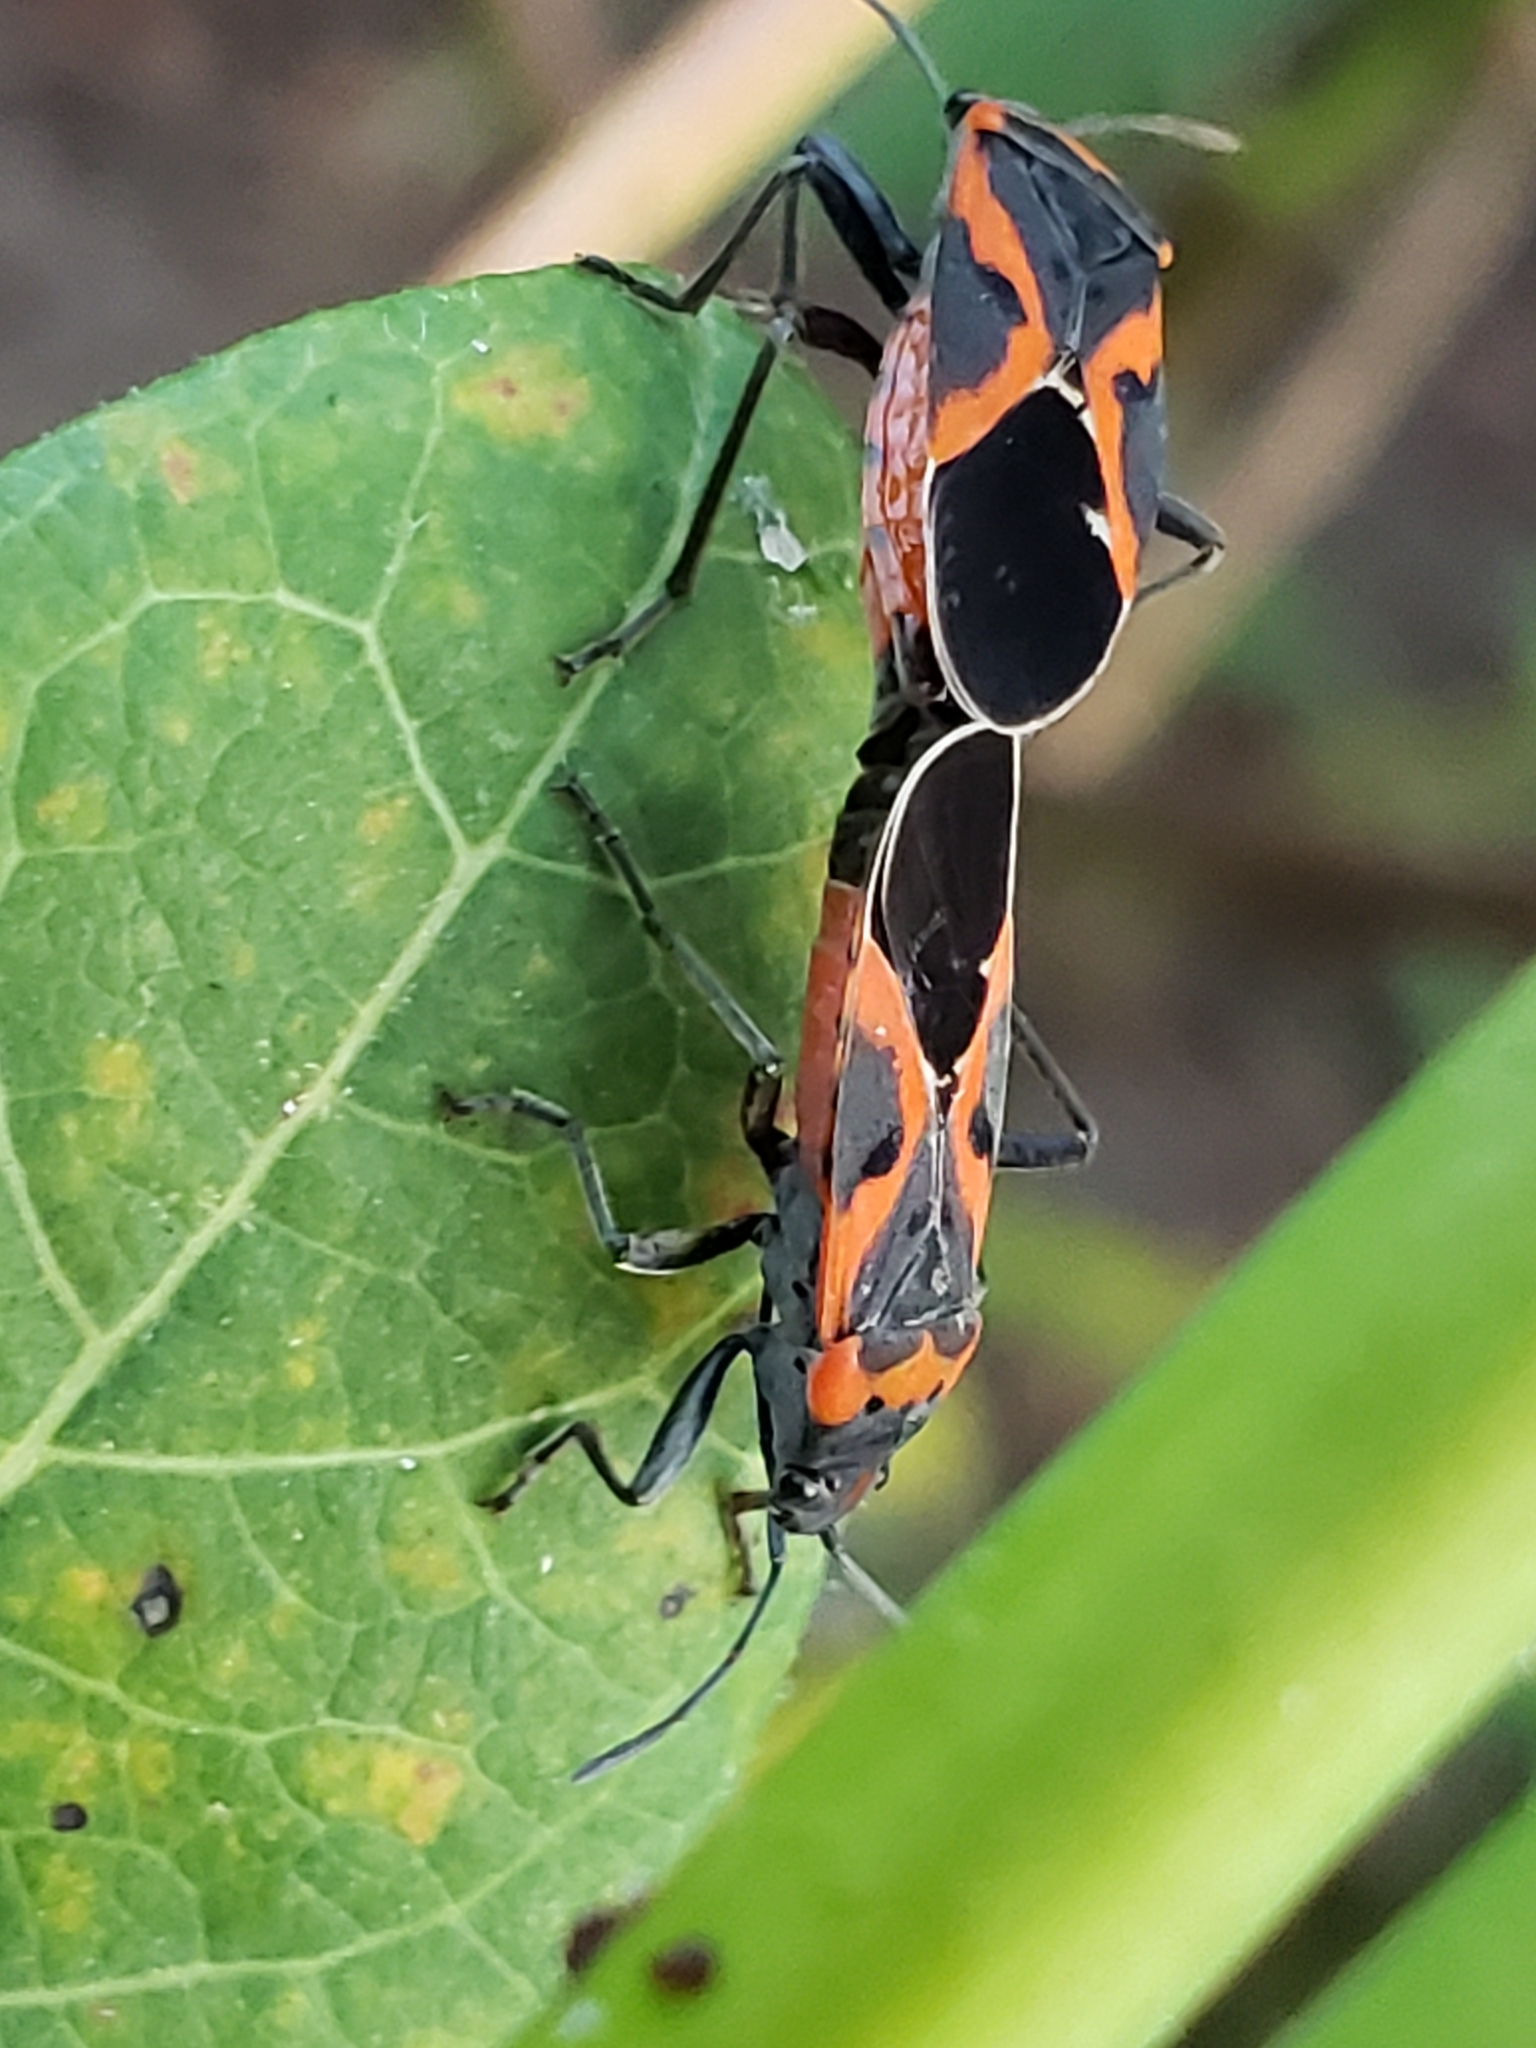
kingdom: Animalia
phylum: Arthropoda
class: Insecta
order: Hemiptera
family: Lygaeidae
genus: Lygaeus
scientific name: Lygaeus kalmii
